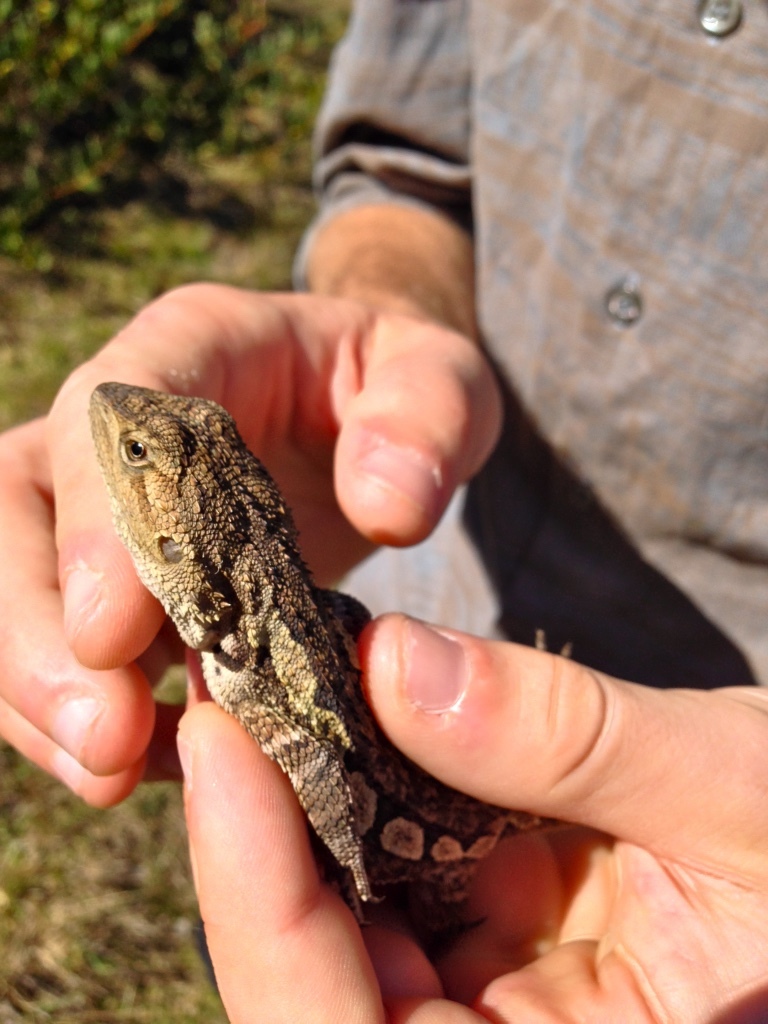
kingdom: Animalia
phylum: Chordata
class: Squamata
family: Agamidae
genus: Amphibolurus
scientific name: Amphibolurus muricatus
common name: Jacky lizard
